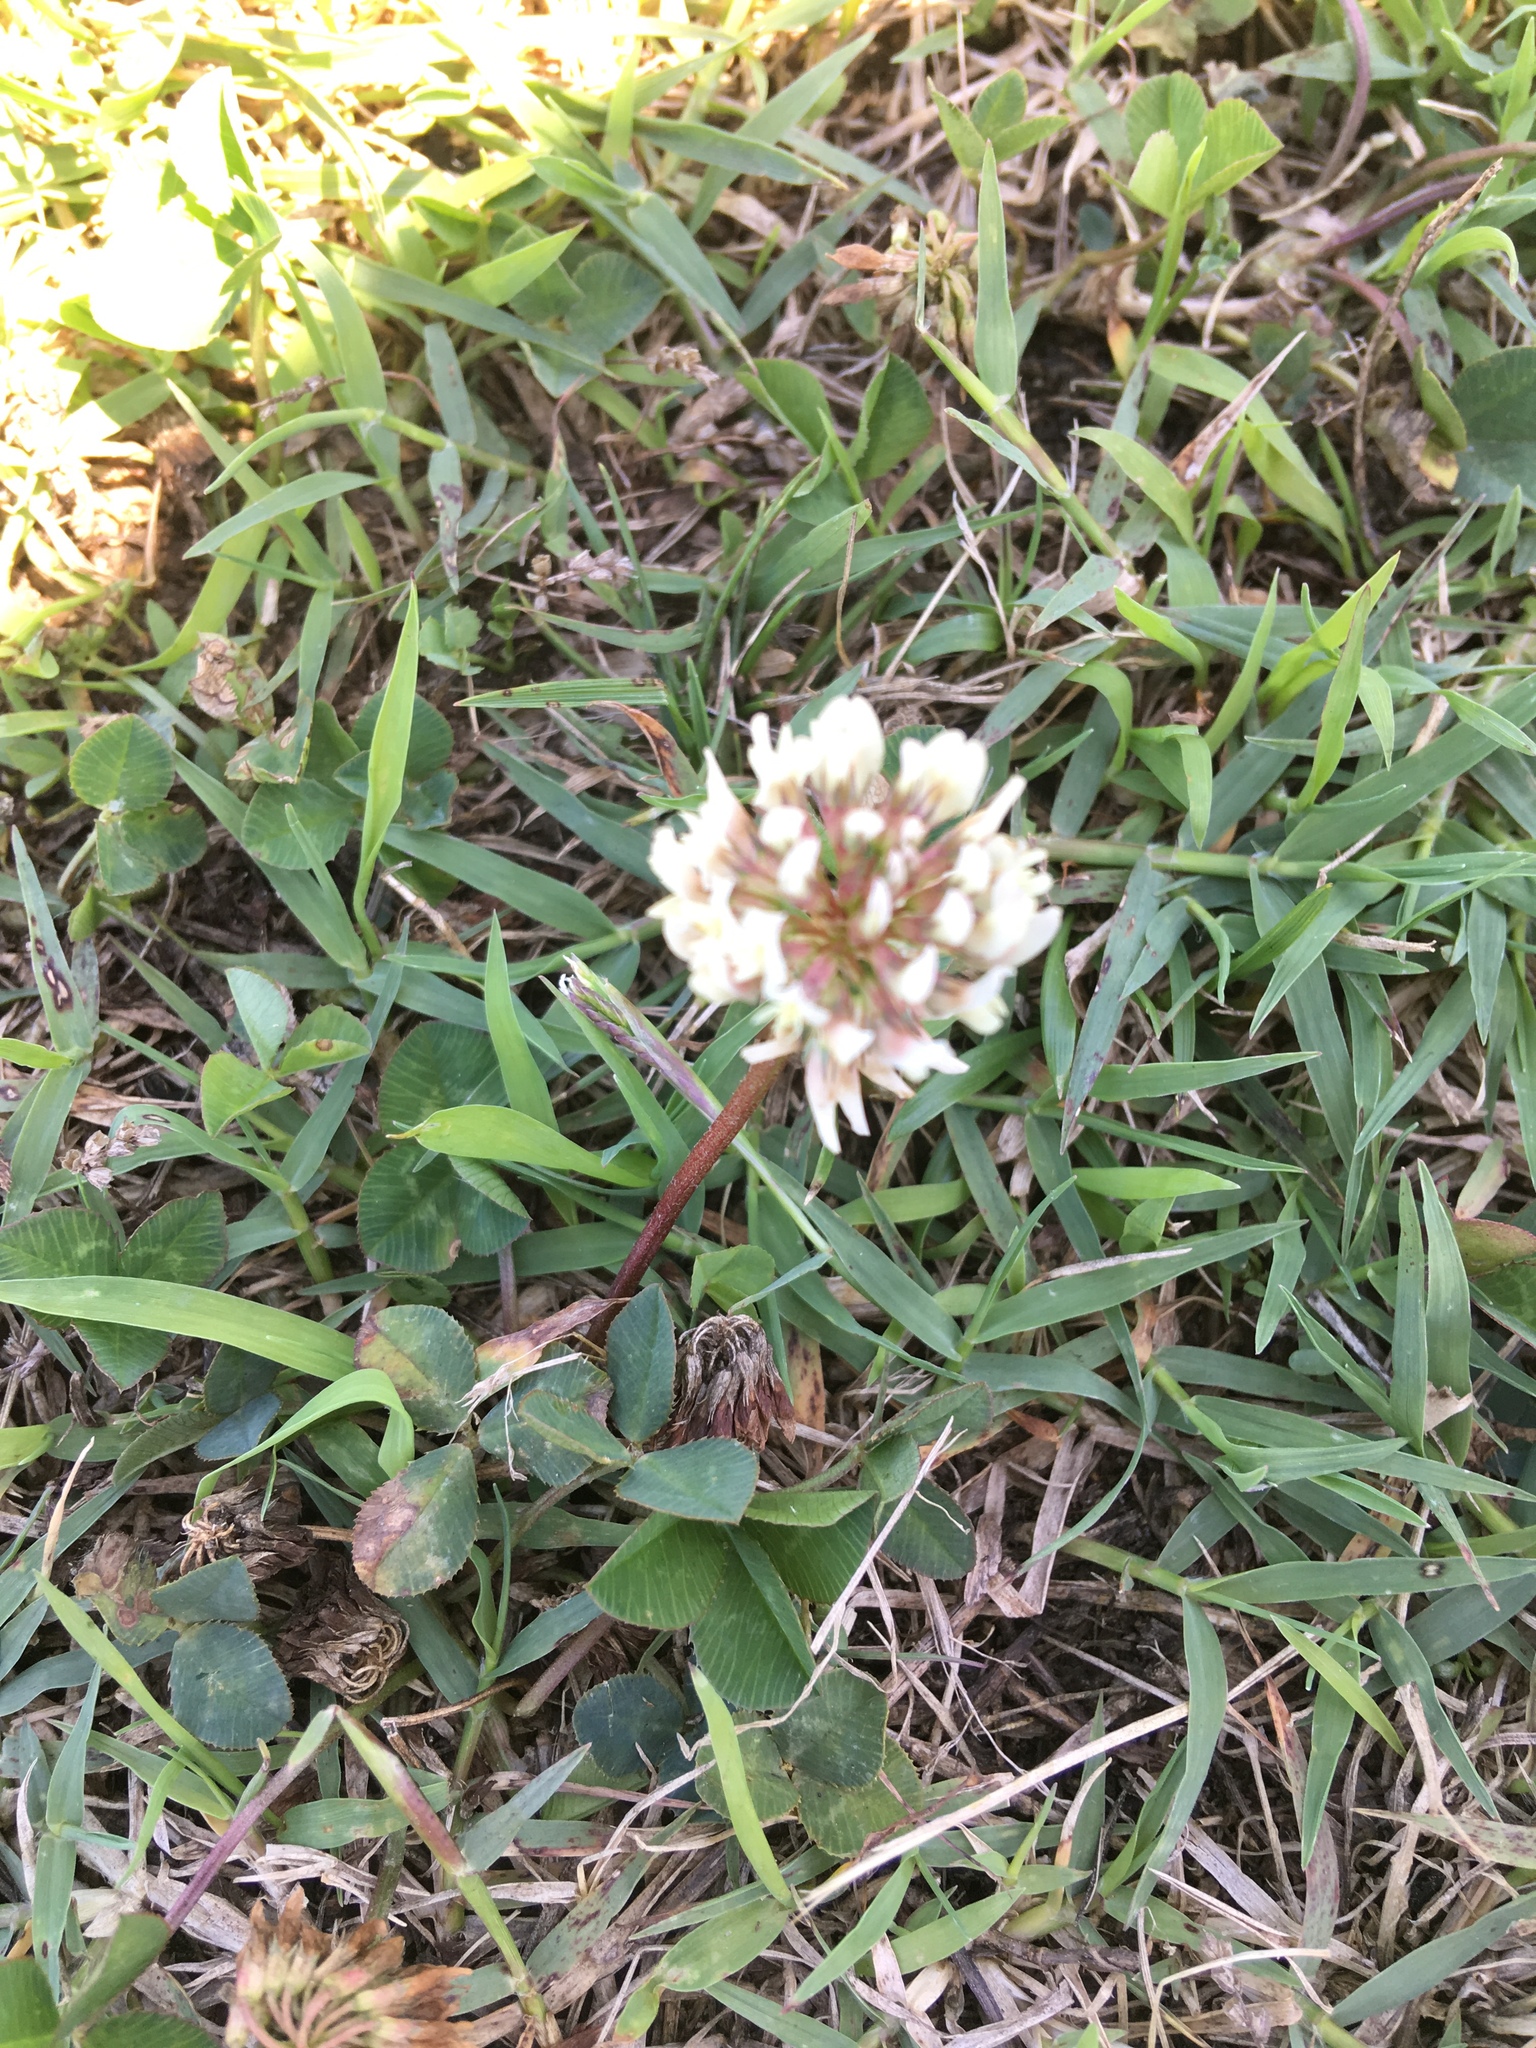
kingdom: Plantae
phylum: Tracheophyta
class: Magnoliopsida
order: Fabales
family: Fabaceae
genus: Trifolium
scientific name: Trifolium repens
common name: White clover
